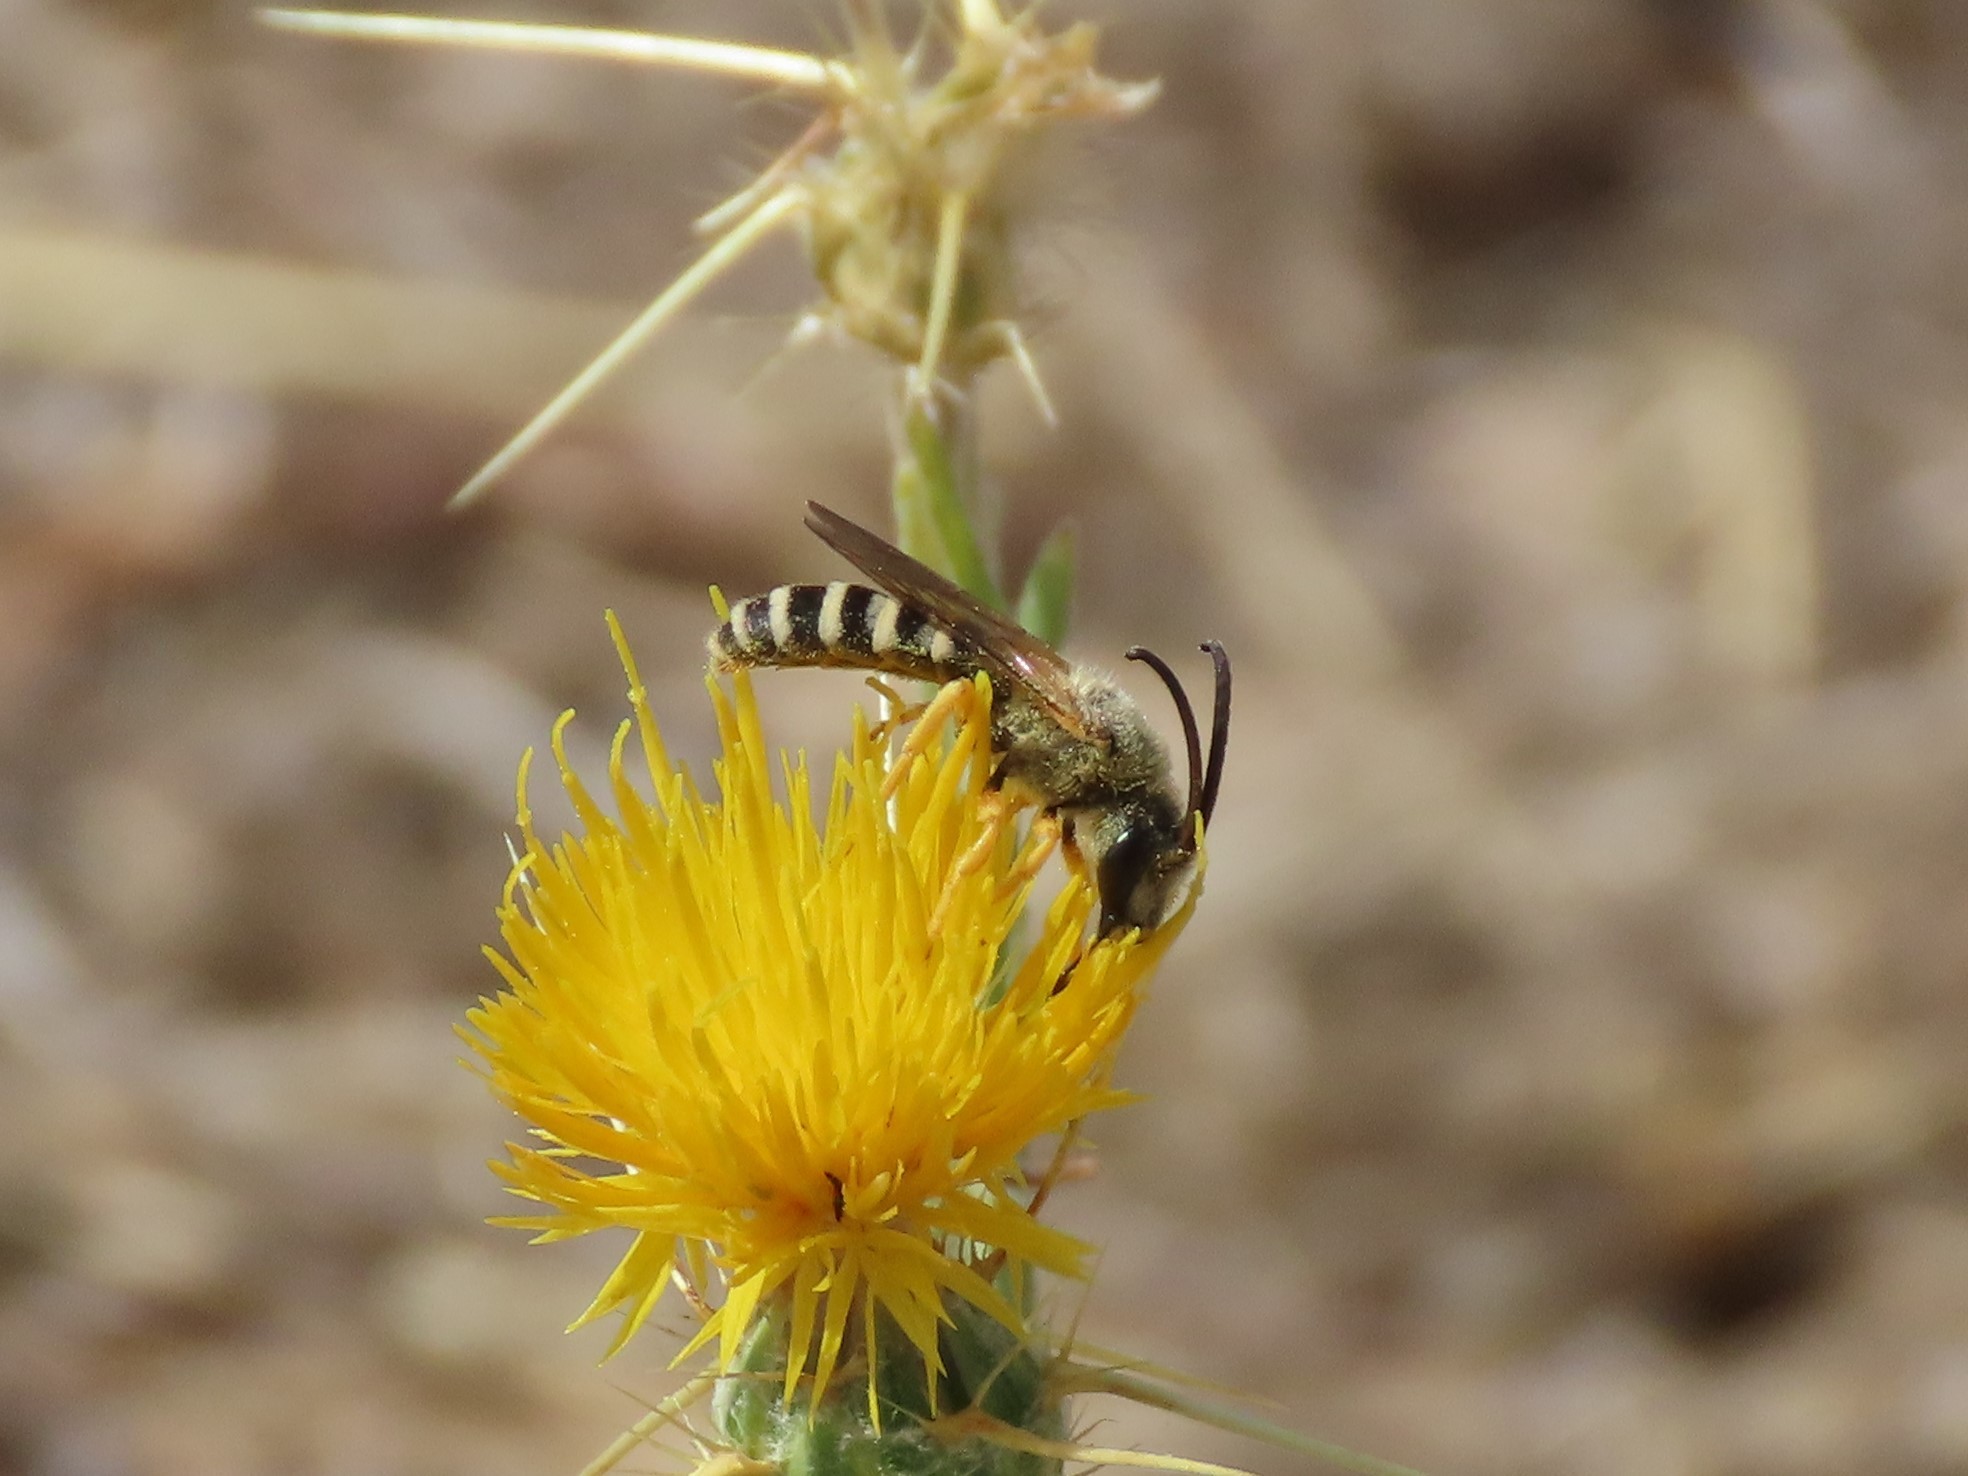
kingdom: Animalia
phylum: Arthropoda
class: Insecta
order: Hymenoptera
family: Halictidae
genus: Halictus
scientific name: Halictus scabiosae
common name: Great banded furrow bee
